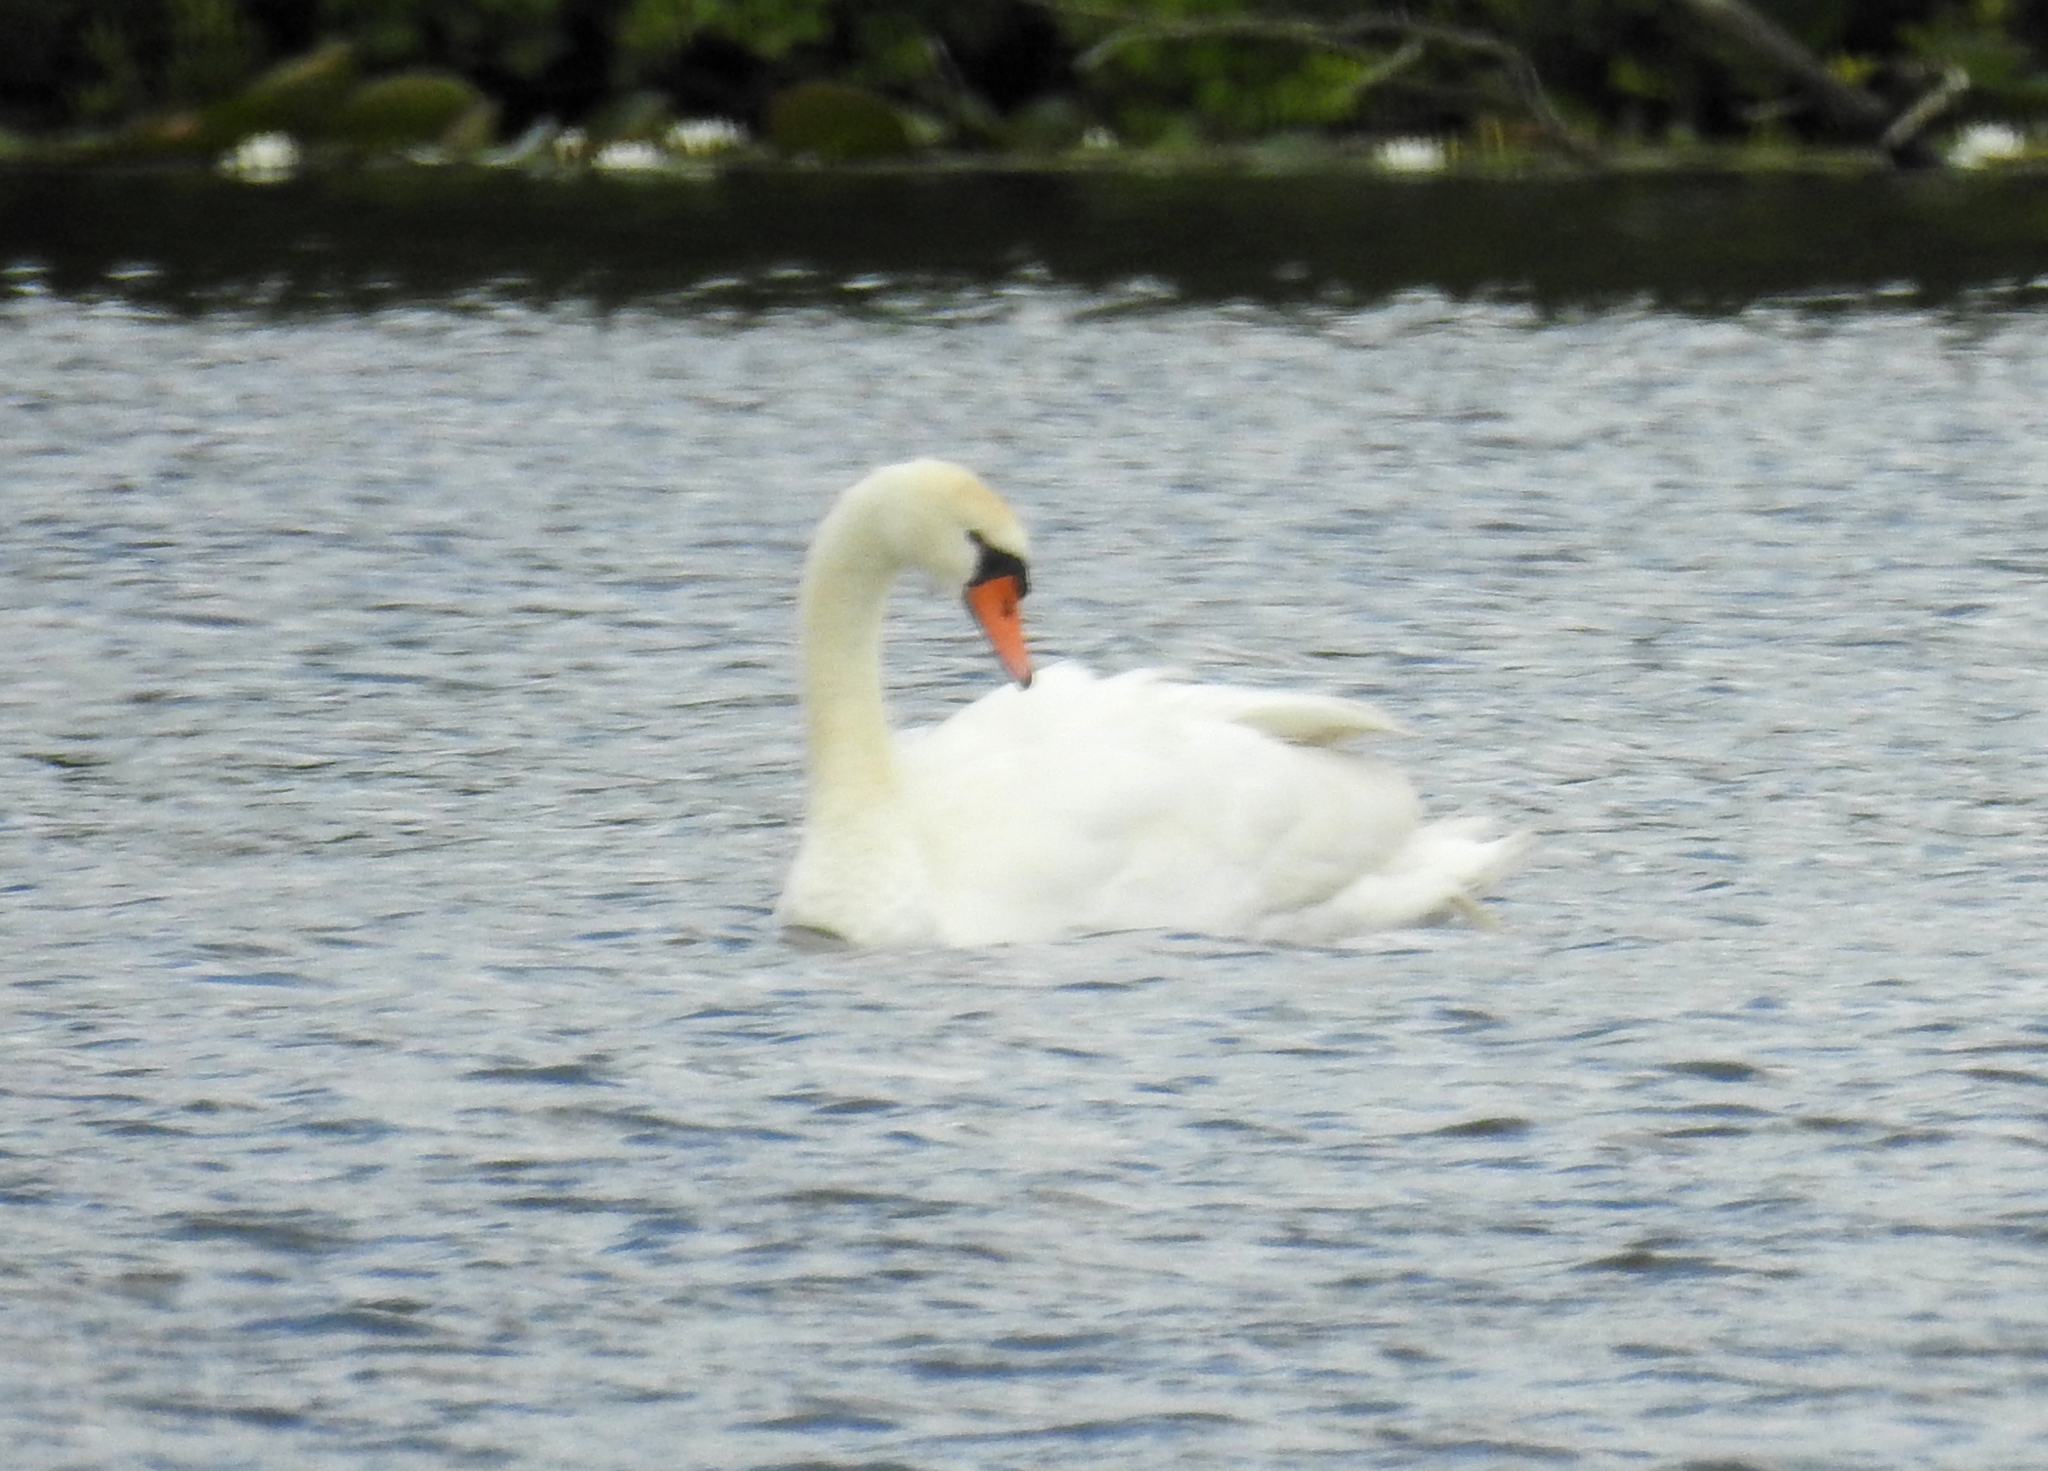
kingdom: Animalia
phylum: Chordata
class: Aves
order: Anseriformes
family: Anatidae
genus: Cygnus
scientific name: Cygnus olor
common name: Mute swan
